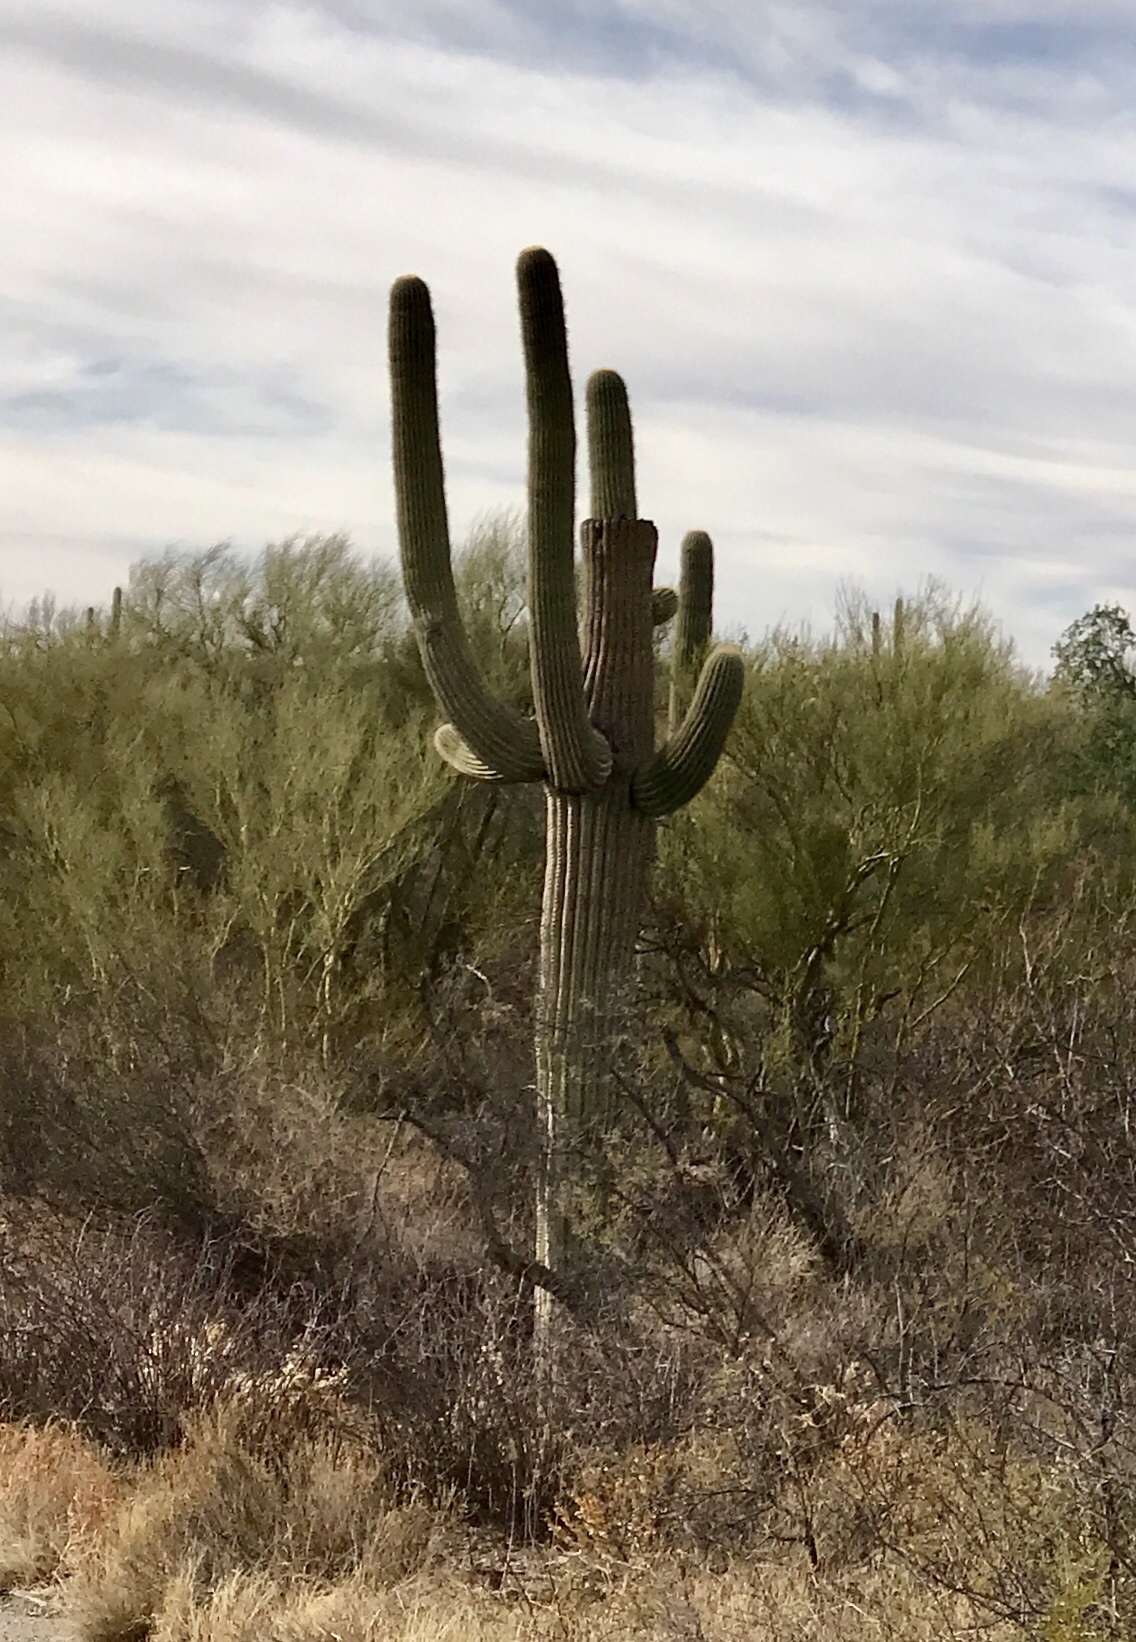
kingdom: Plantae
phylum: Tracheophyta
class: Magnoliopsida
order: Caryophyllales
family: Cactaceae
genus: Carnegiea
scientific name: Carnegiea gigantea
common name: Saguaro
